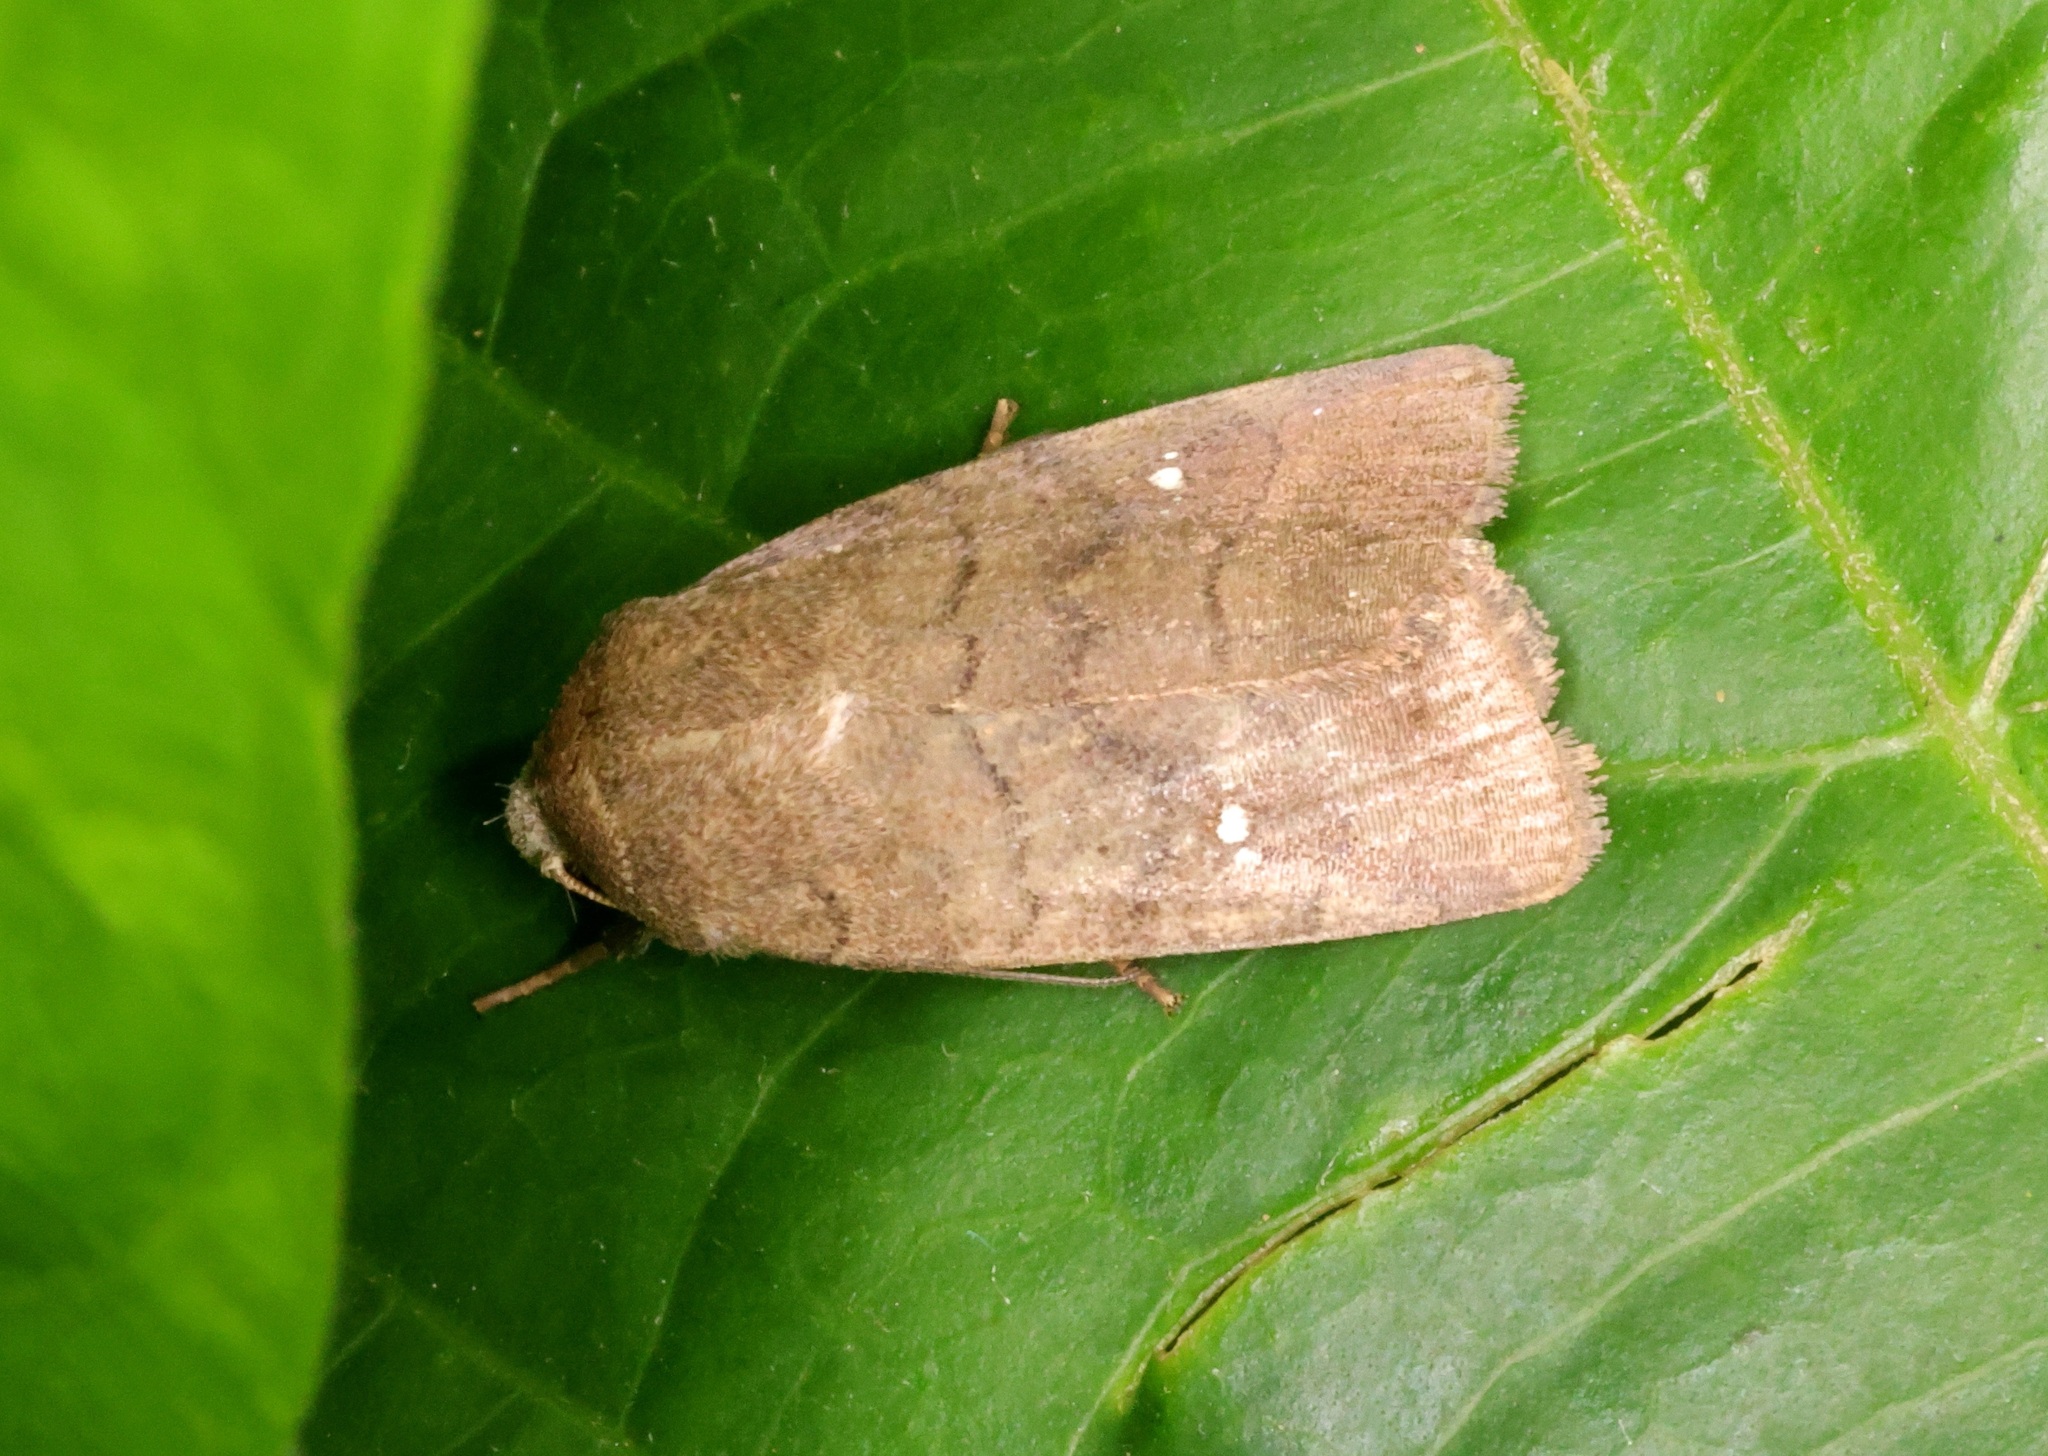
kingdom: Animalia
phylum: Arthropoda
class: Insecta
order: Lepidoptera
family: Noctuidae
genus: Athetis
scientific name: Athetis hongkongensis
